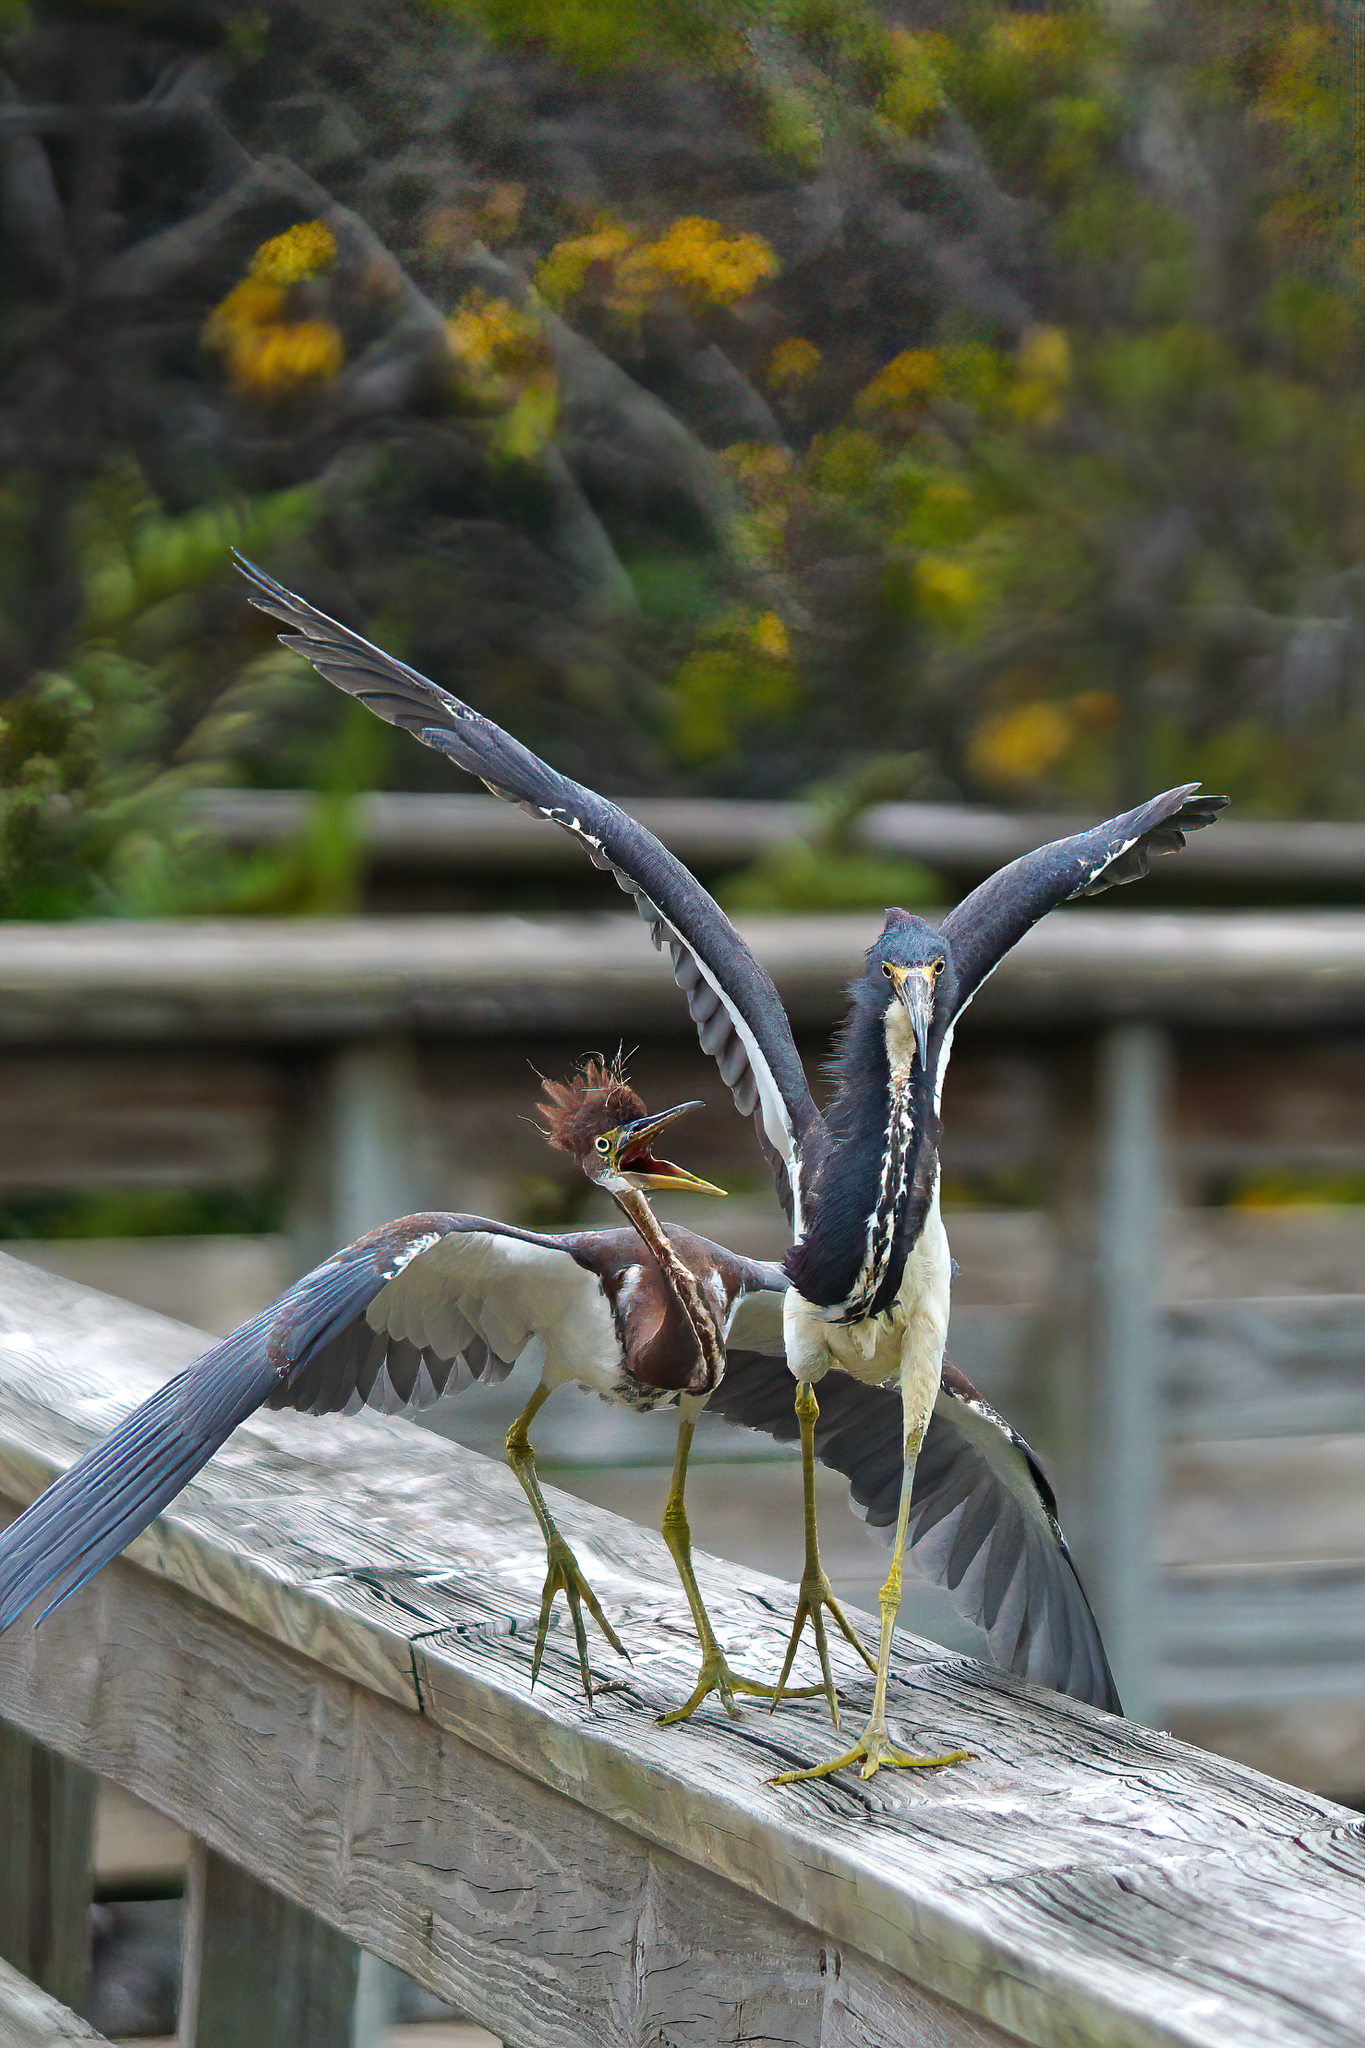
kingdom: Animalia
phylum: Chordata
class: Aves
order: Pelecaniformes
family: Ardeidae
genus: Egretta
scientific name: Egretta tricolor
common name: Tricolored heron
